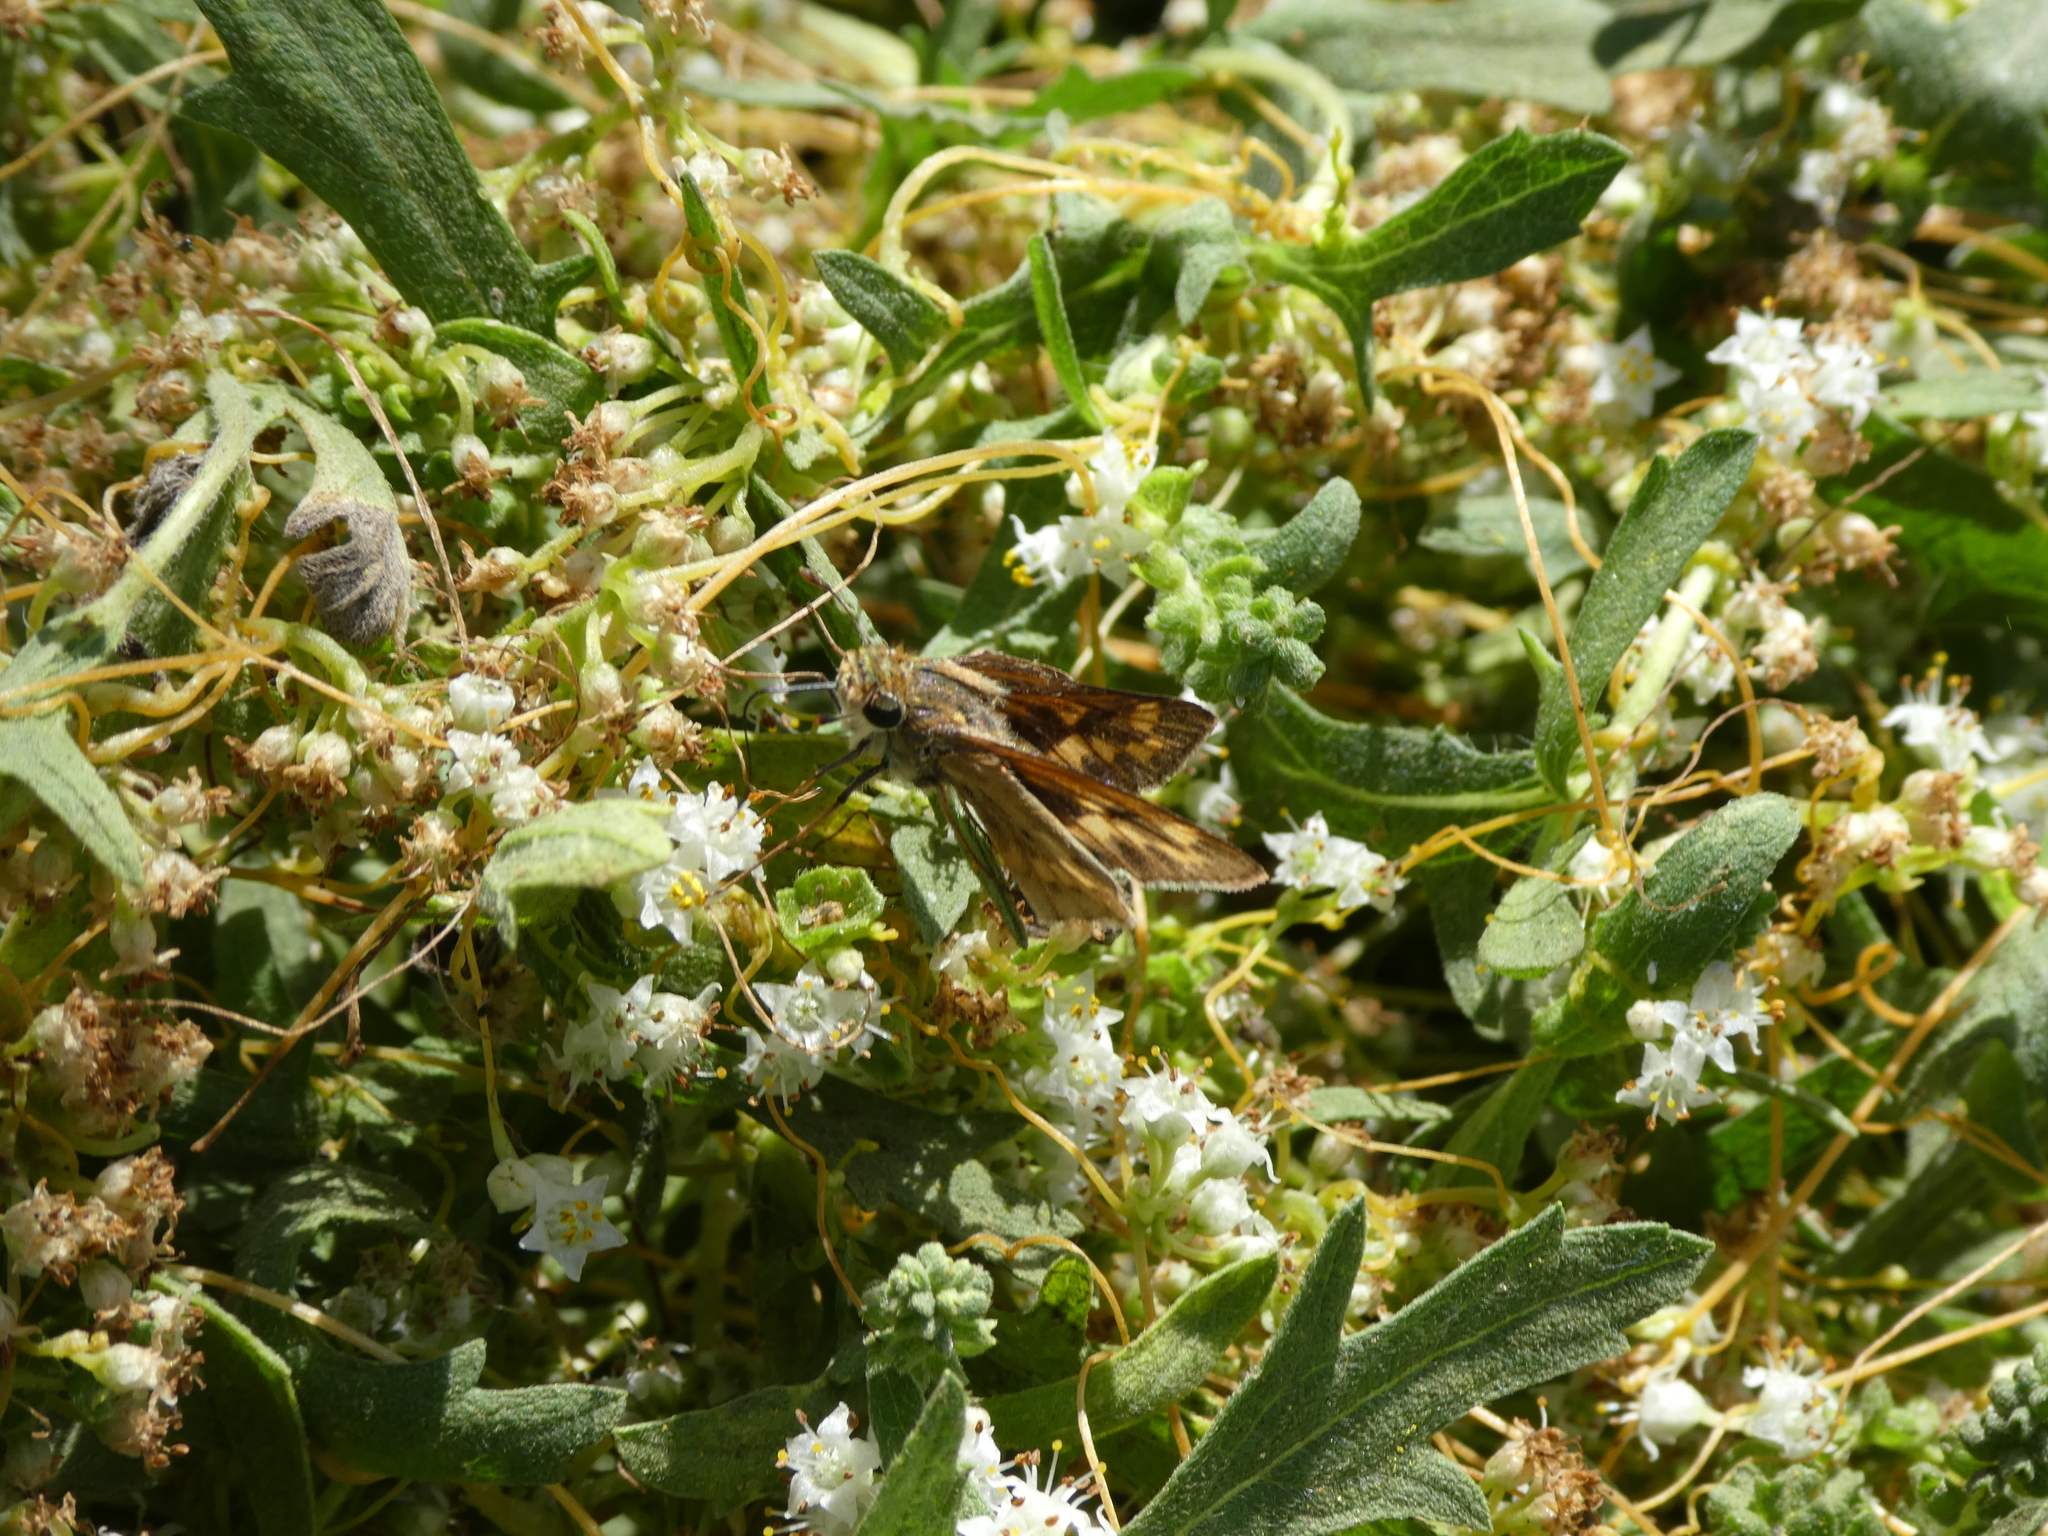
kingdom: Animalia
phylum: Arthropoda
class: Insecta
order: Lepidoptera
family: Hesperiidae
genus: Hylephila
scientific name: Hylephila phyleus
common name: Fiery skipper
